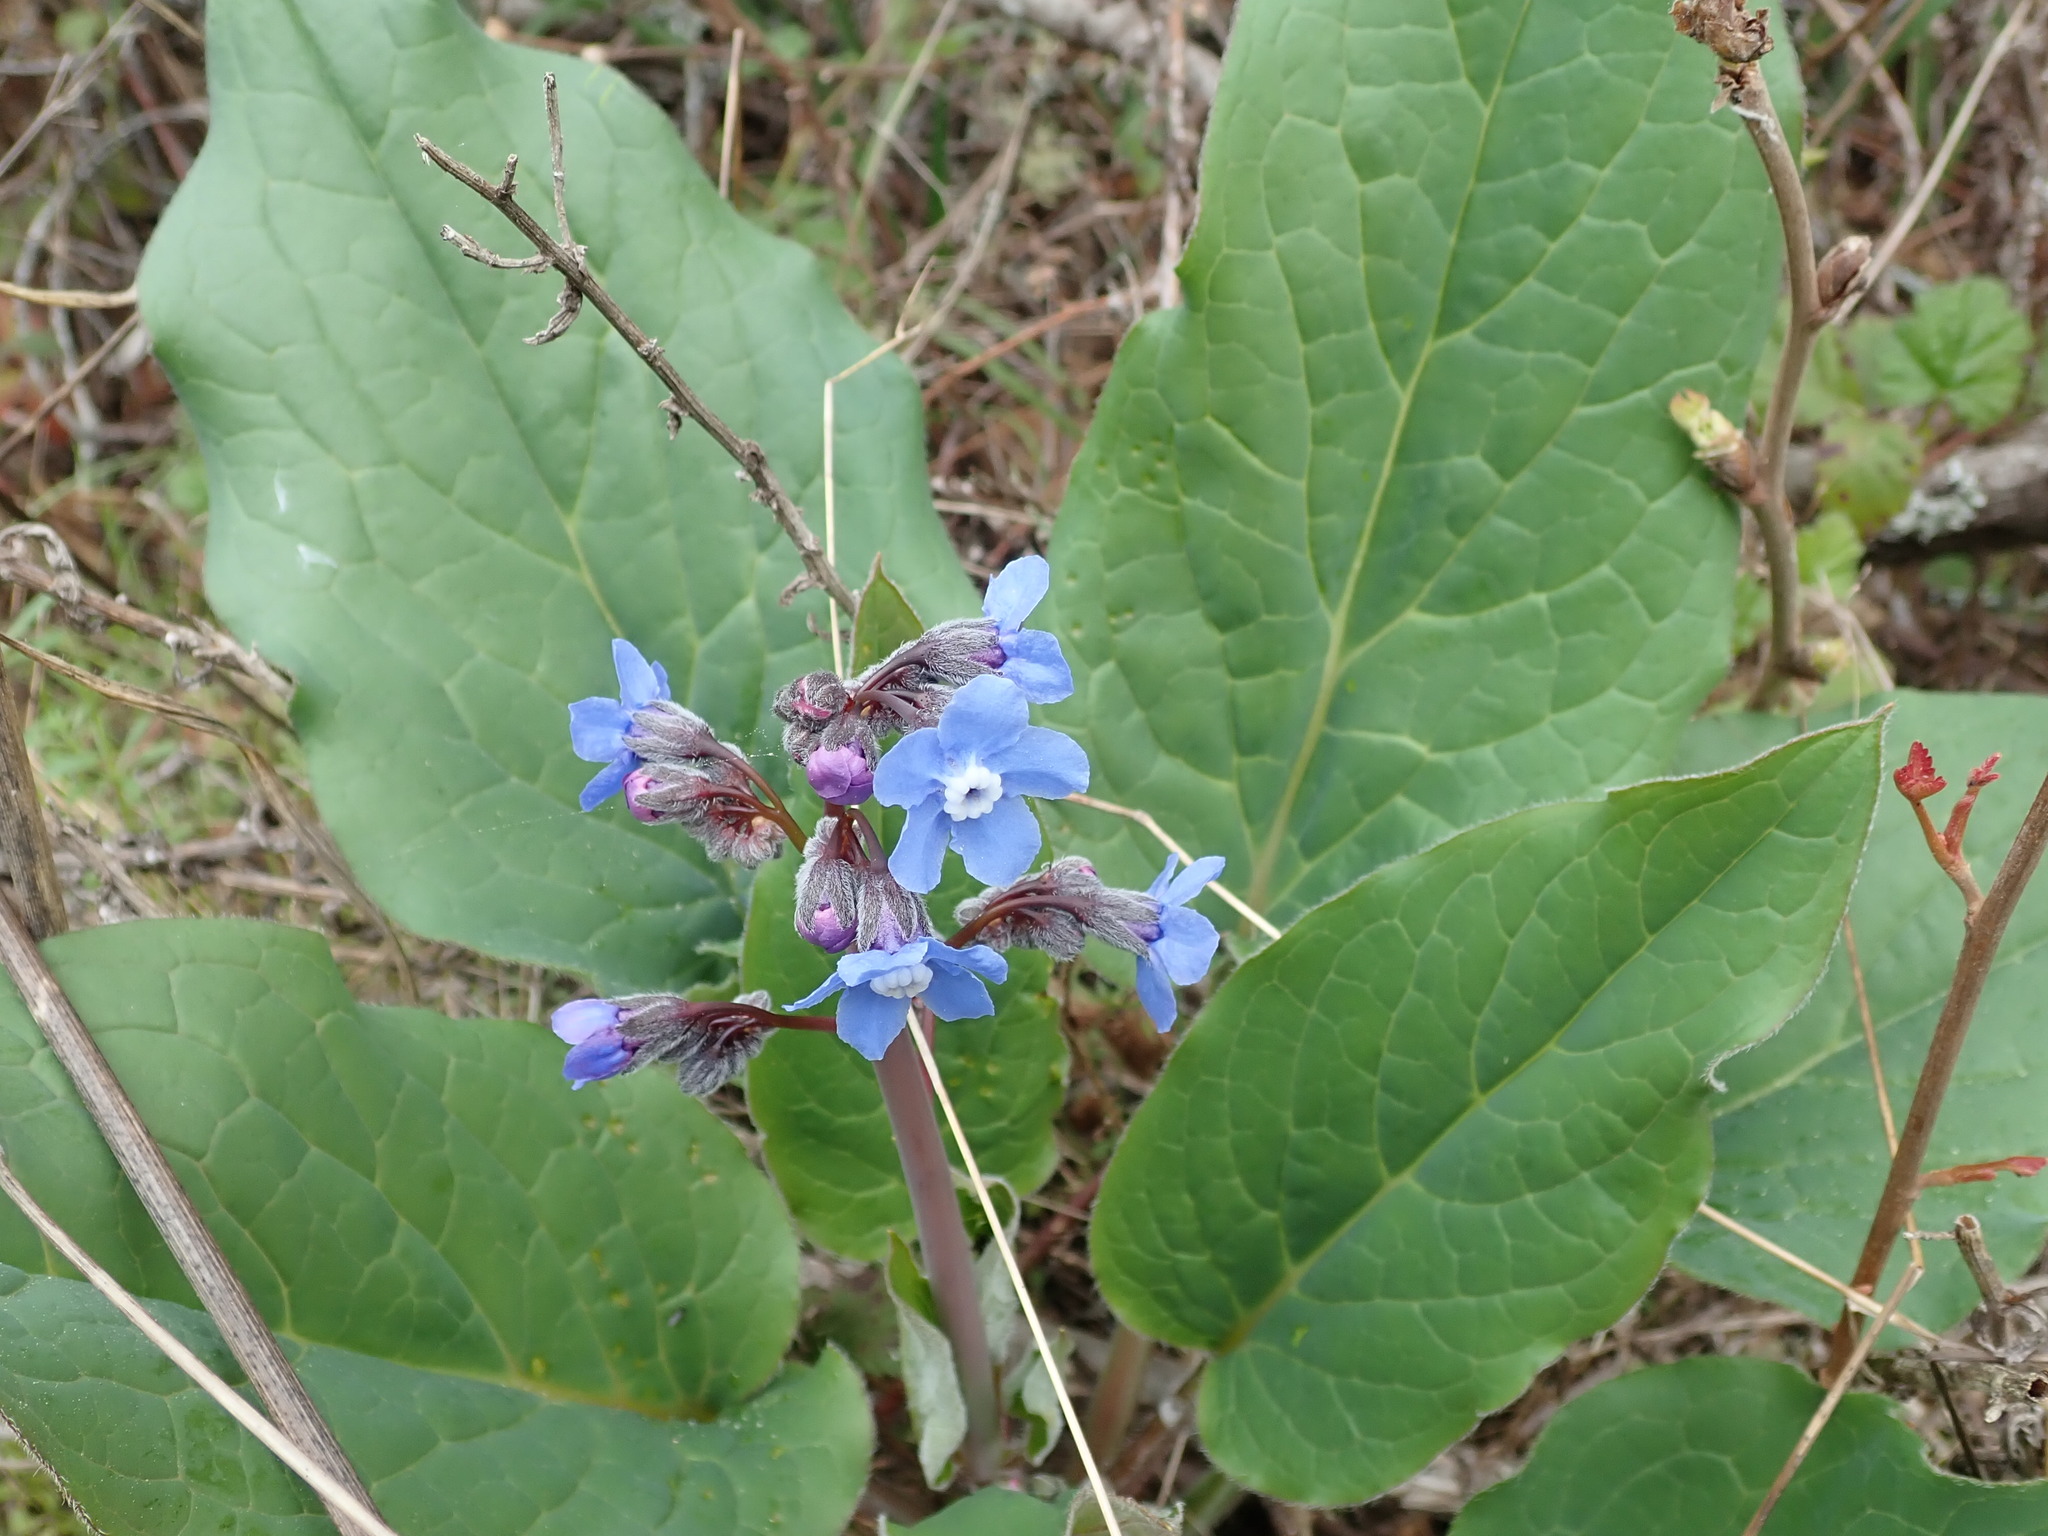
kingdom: Plantae
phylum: Tracheophyta
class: Magnoliopsida
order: Boraginales
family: Boraginaceae
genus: Adelinia
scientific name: Adelinia grande
